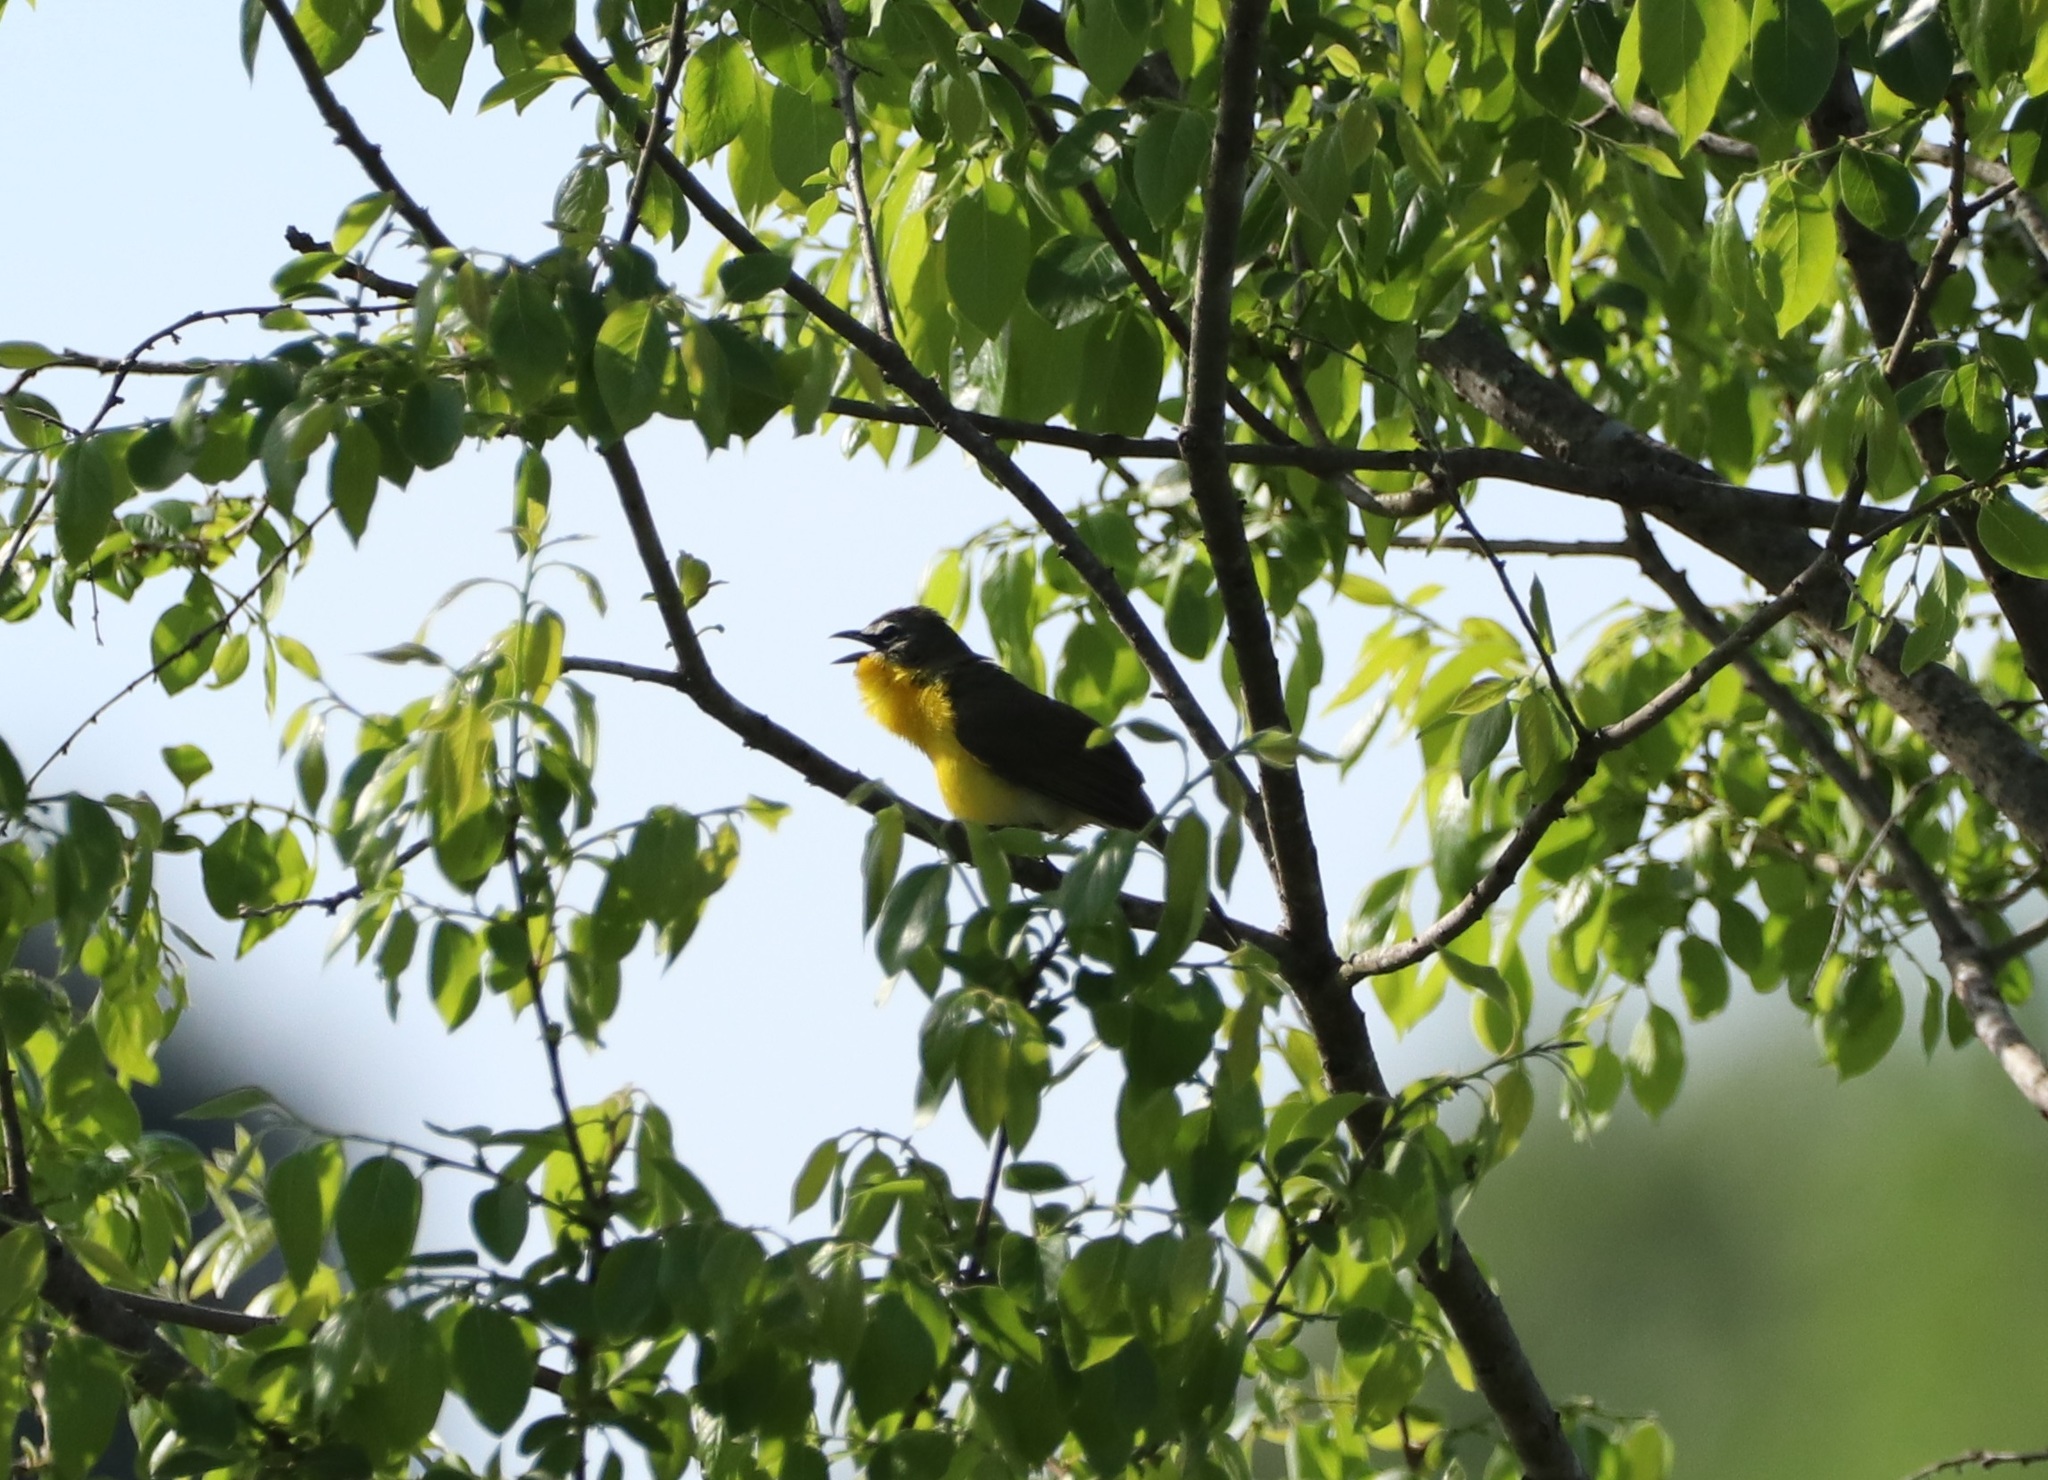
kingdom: Animalia
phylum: Chordata
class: Aves
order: Passeriformes
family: Parulidae
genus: Icteria
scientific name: Icteria virens
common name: Yellow-breasted chat
